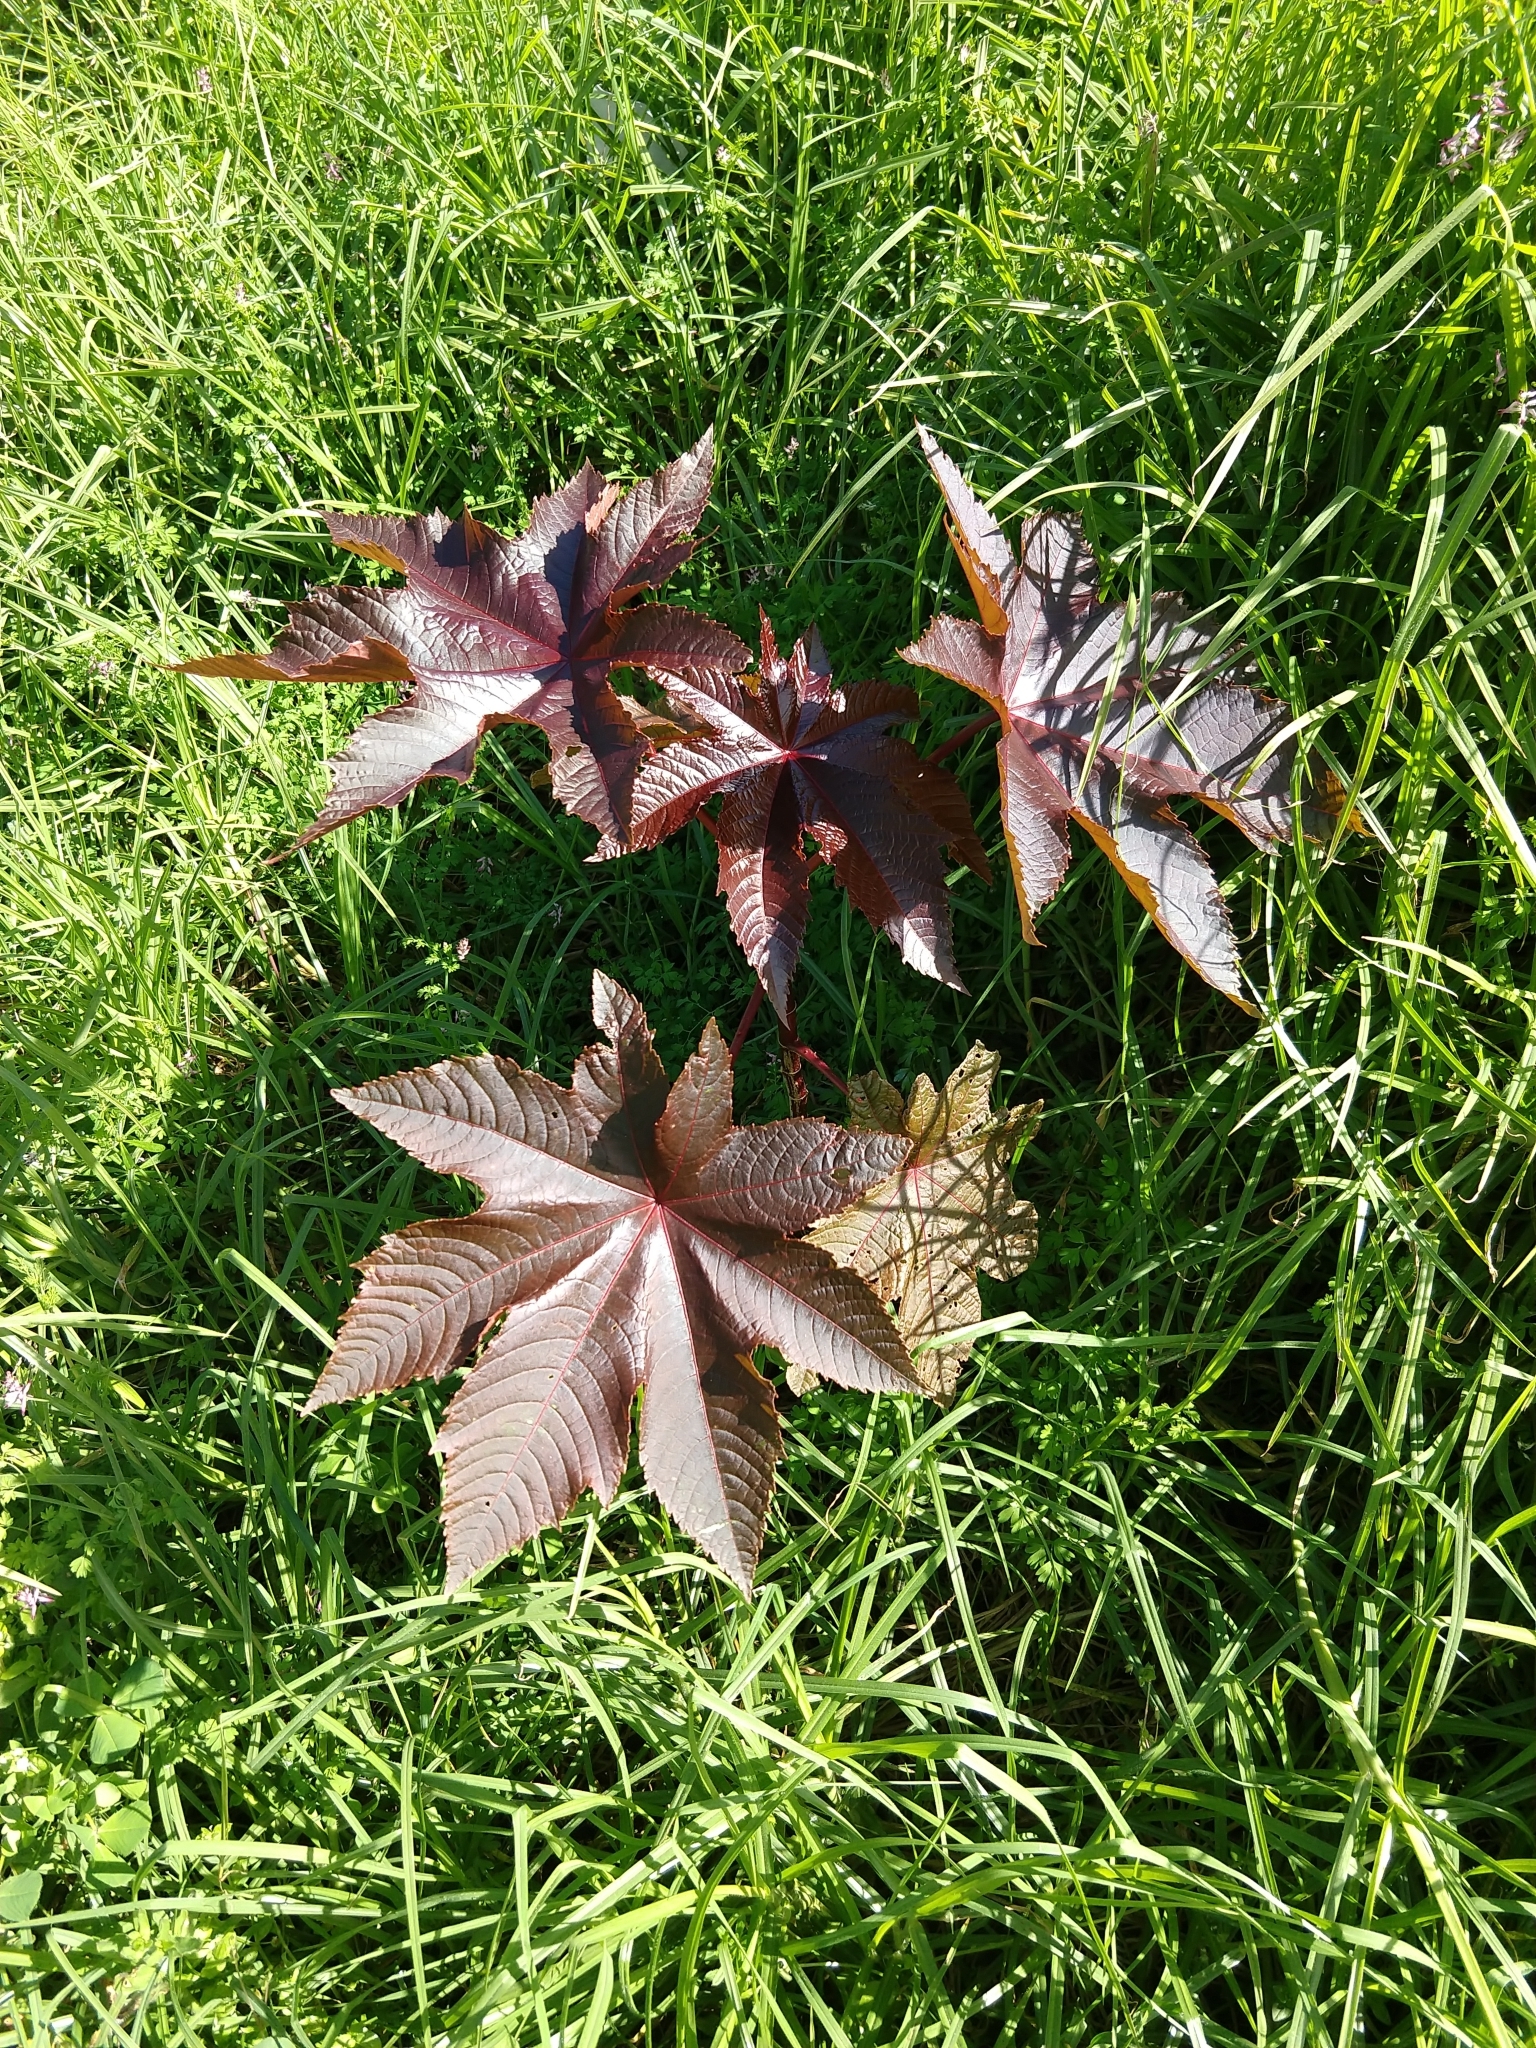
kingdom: Plantae
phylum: Tracheophyta
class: Magnoliopsida
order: Malpighiales
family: Euphorbiaceae
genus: Ricinus
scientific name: Ricinus communis
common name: Castor-oil-plant
